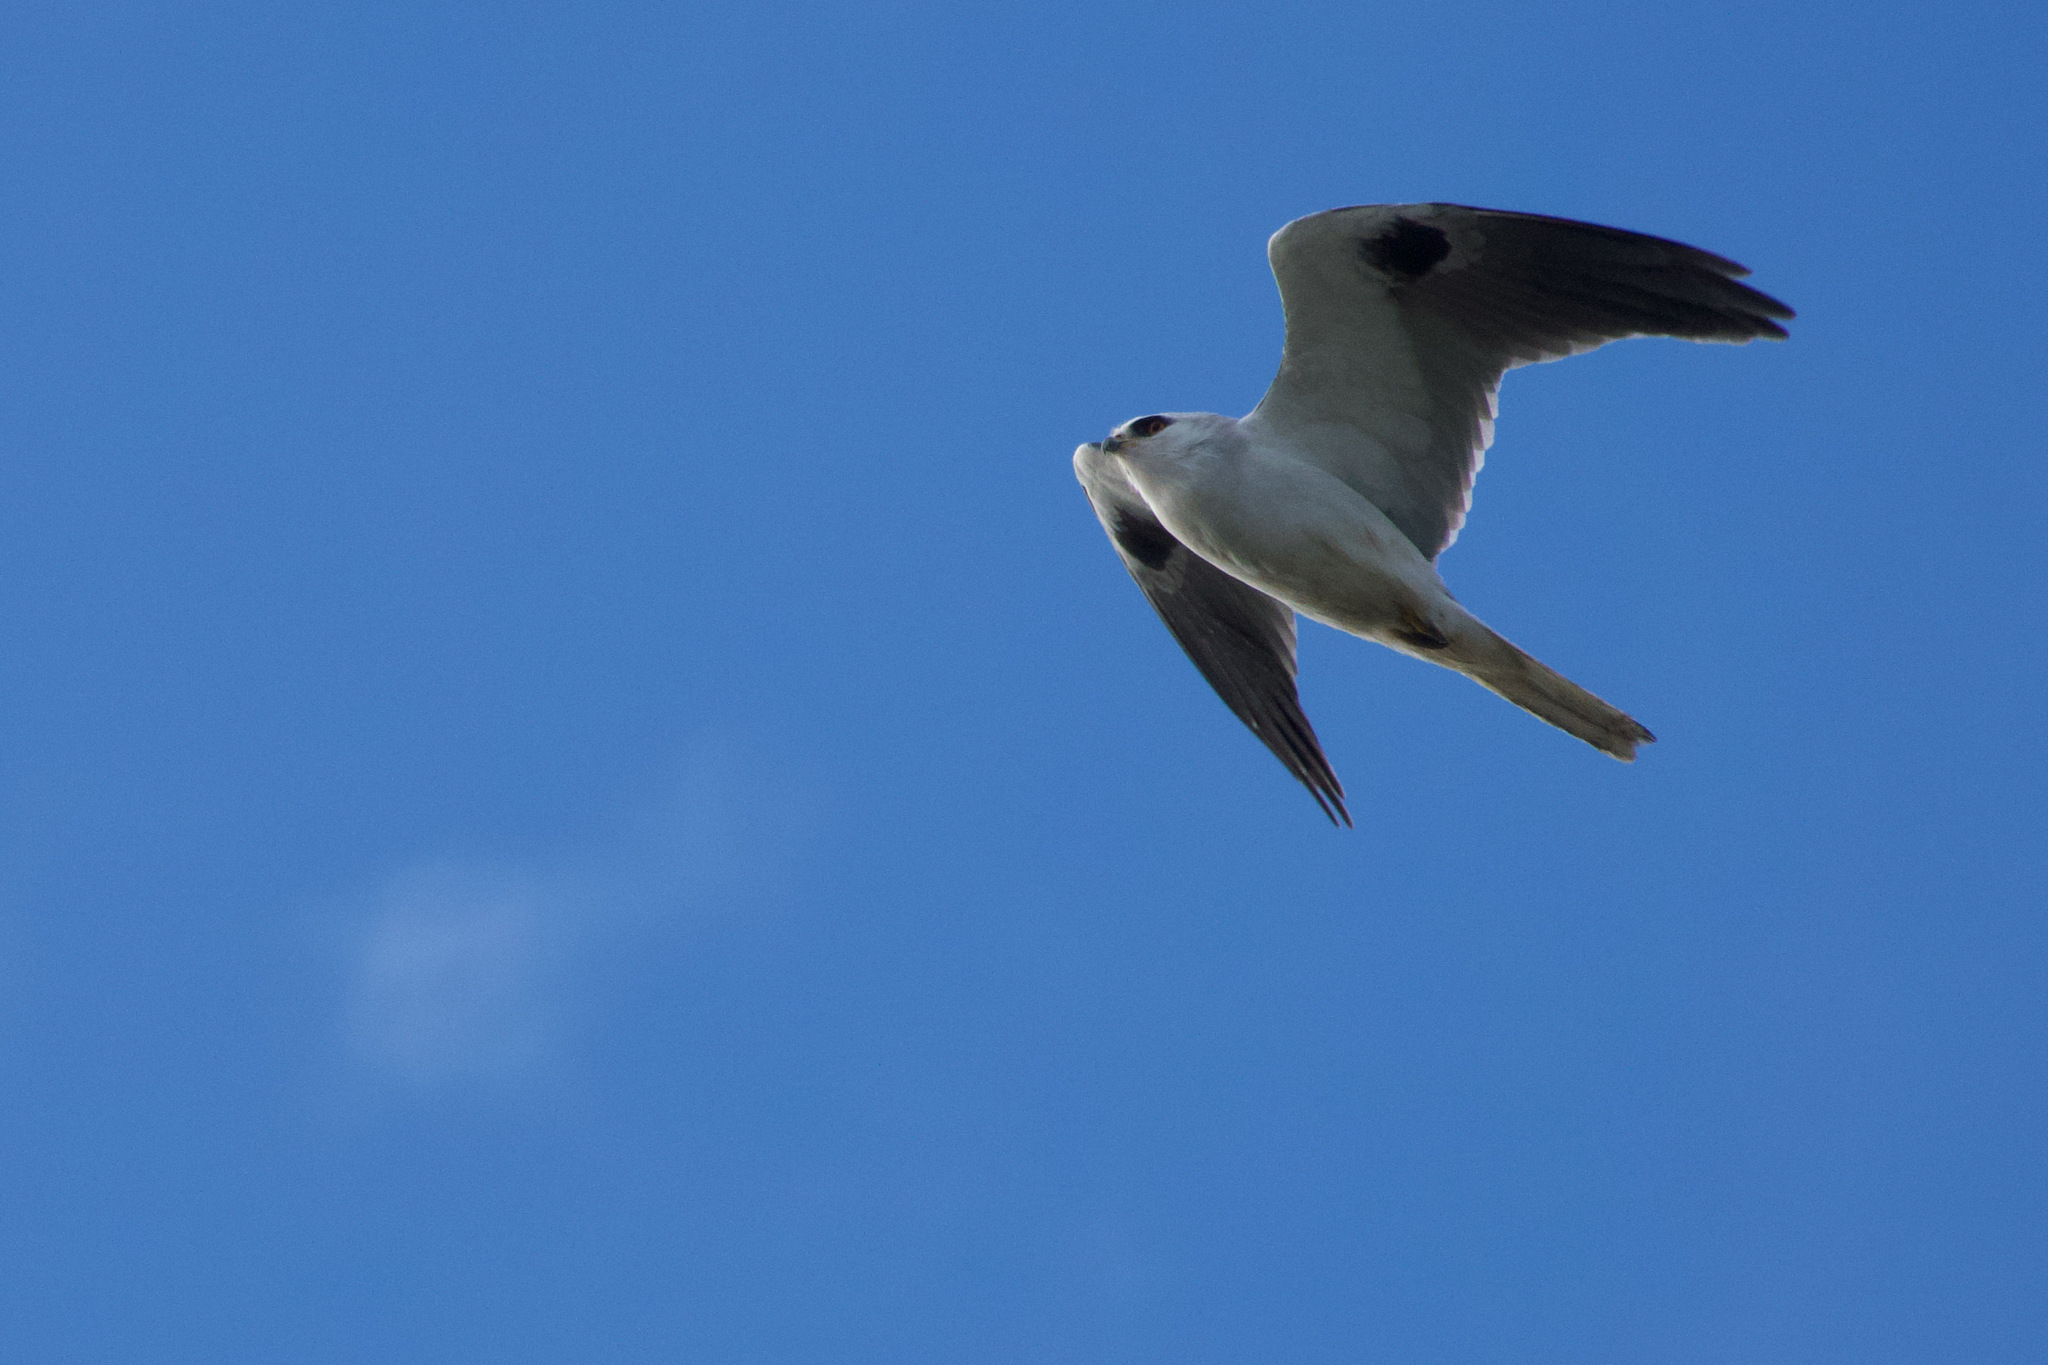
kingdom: Animalia
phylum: Chordata
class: Aves
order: Accipitriformes
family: Accipitridae
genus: Elanus
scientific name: Elanus leucurus
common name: White-tailed kite
